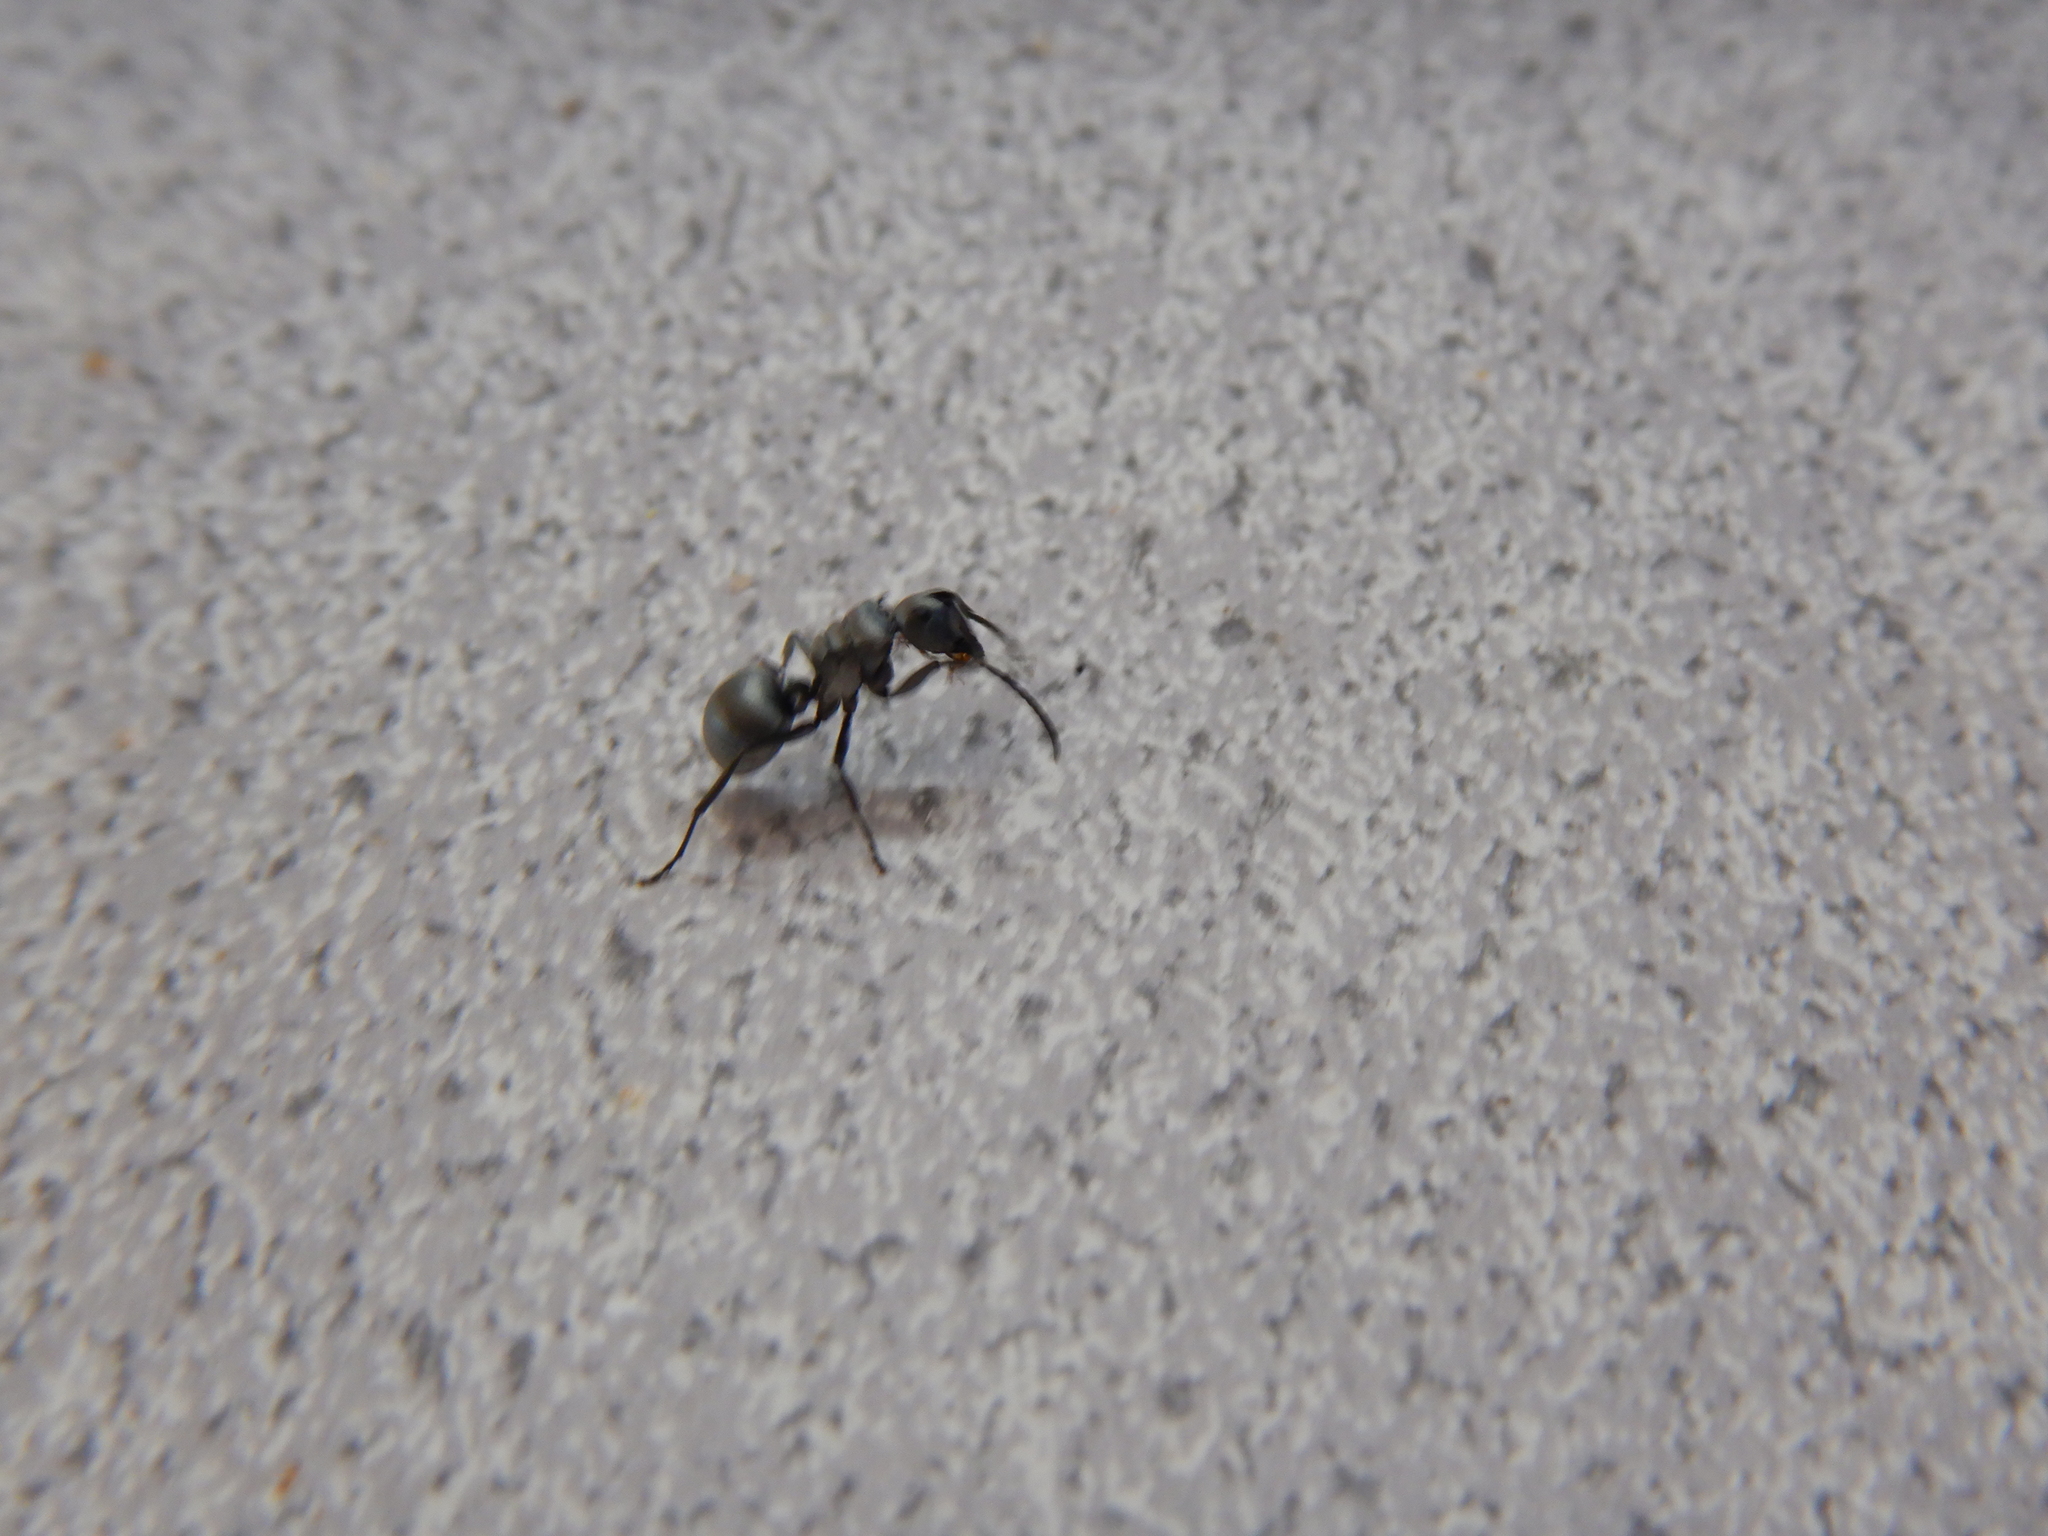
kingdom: Animalia
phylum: Arthropoda
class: Insecta
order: Hymenoptera
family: Formicidae
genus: Polyrhachis
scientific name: Polyrhachis schlueteri
